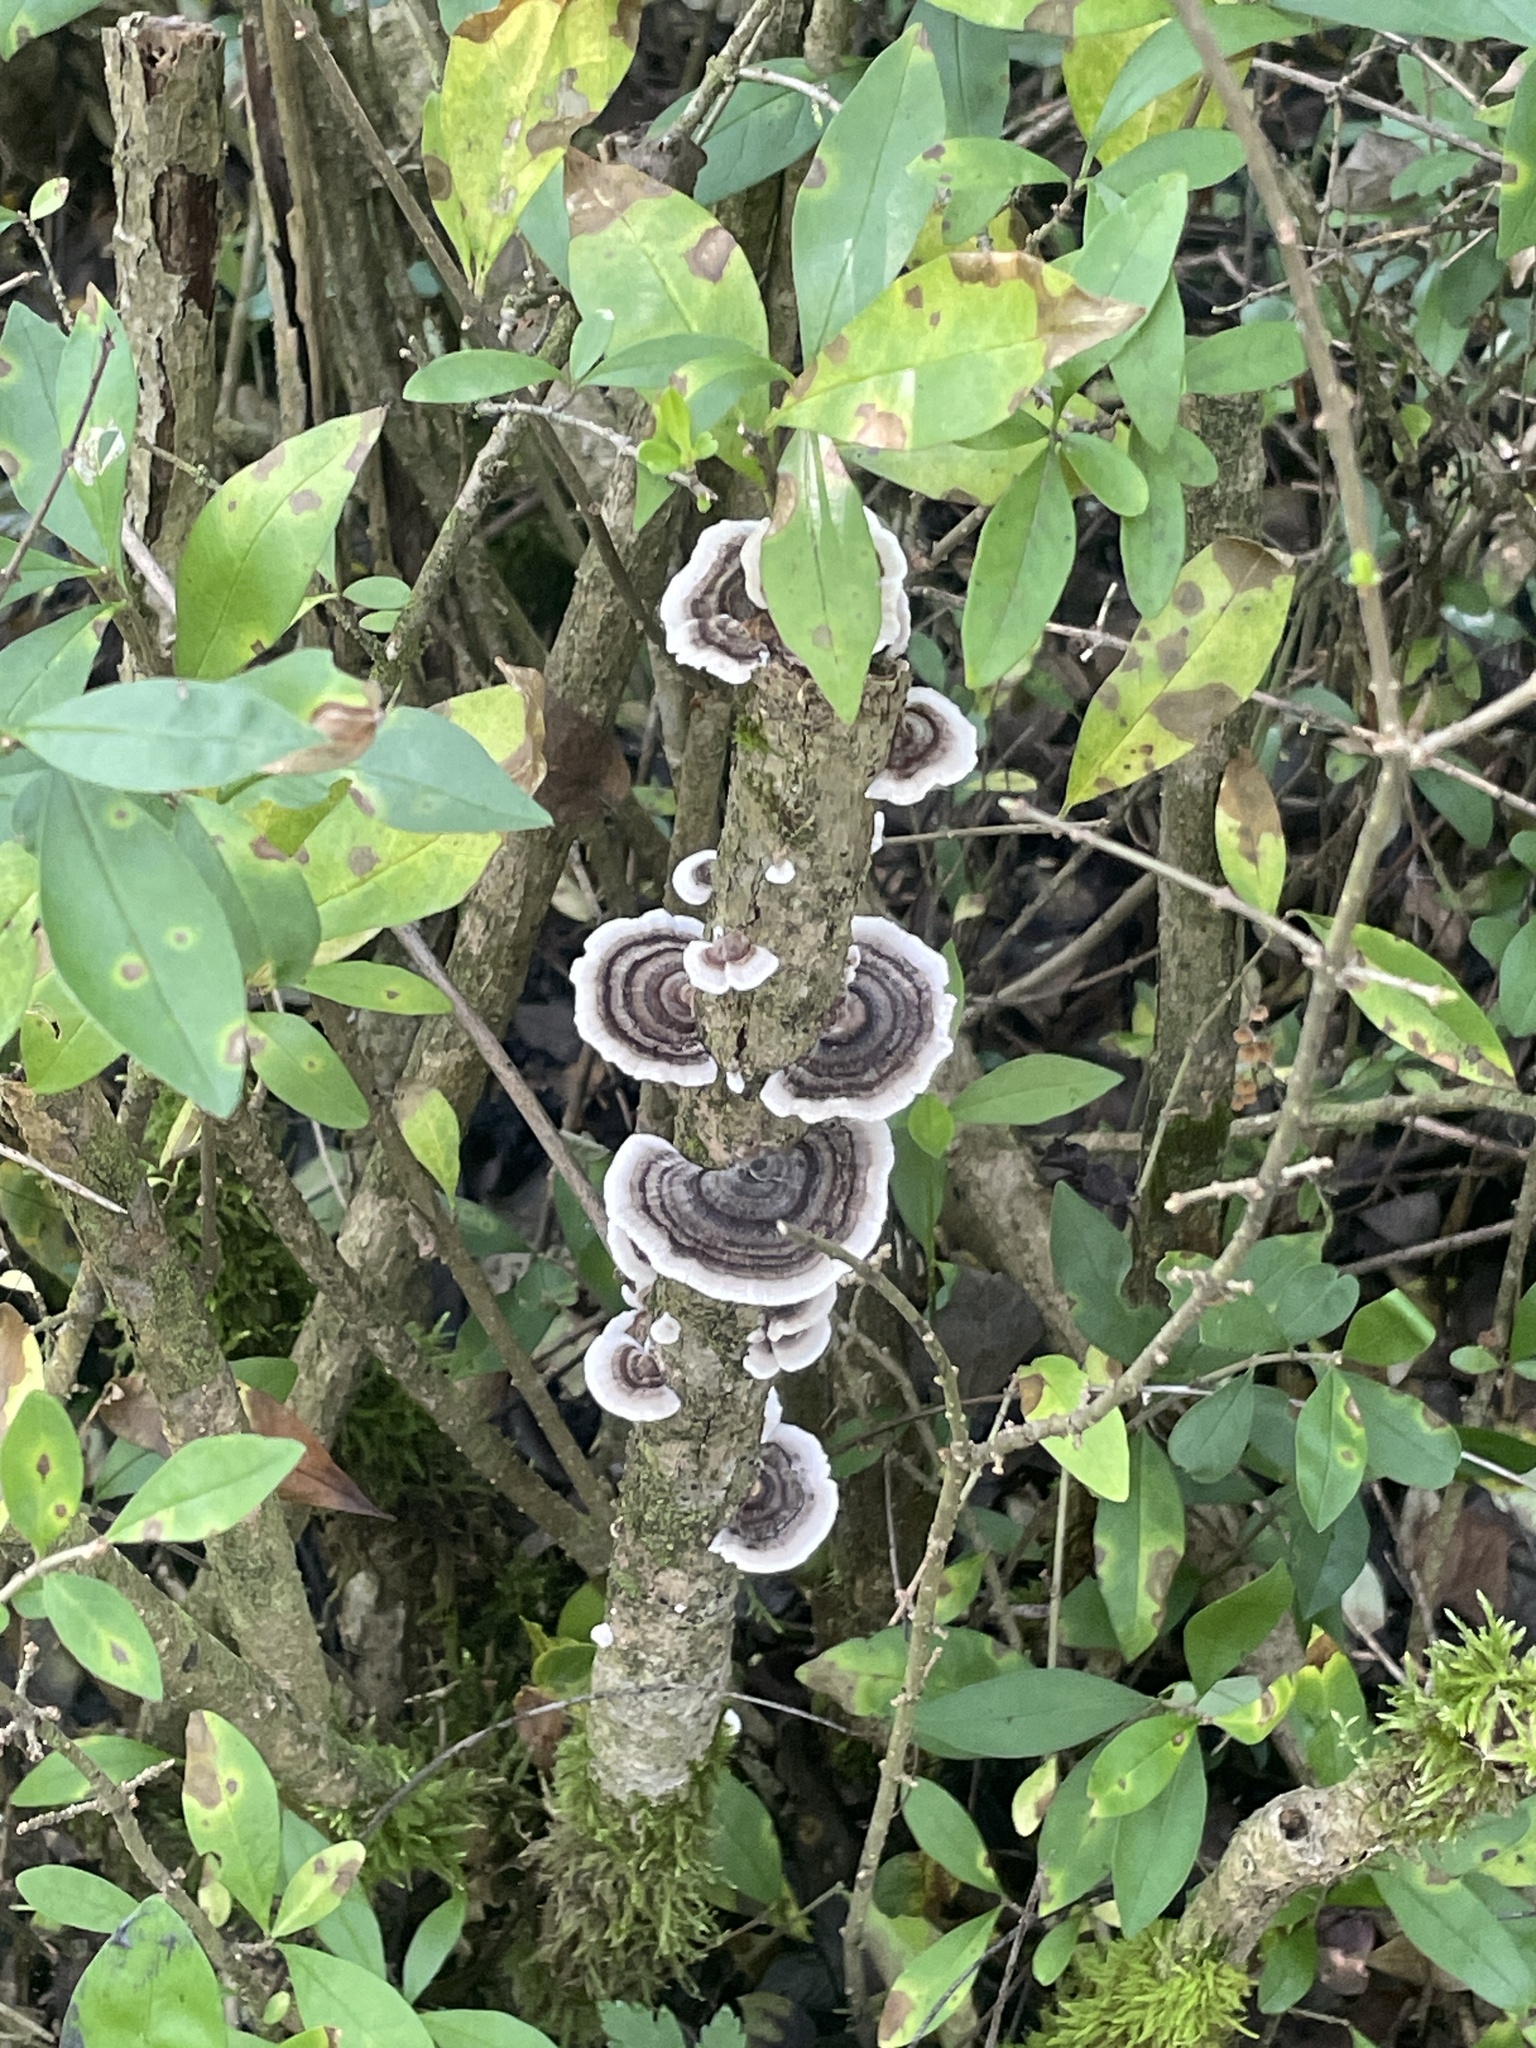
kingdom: Fungi
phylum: Basidiomycota
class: Agaricomycetes
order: Polyporales
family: Polyporaceae
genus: Trametes
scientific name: Trametes versicolor
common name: Turkeytail
